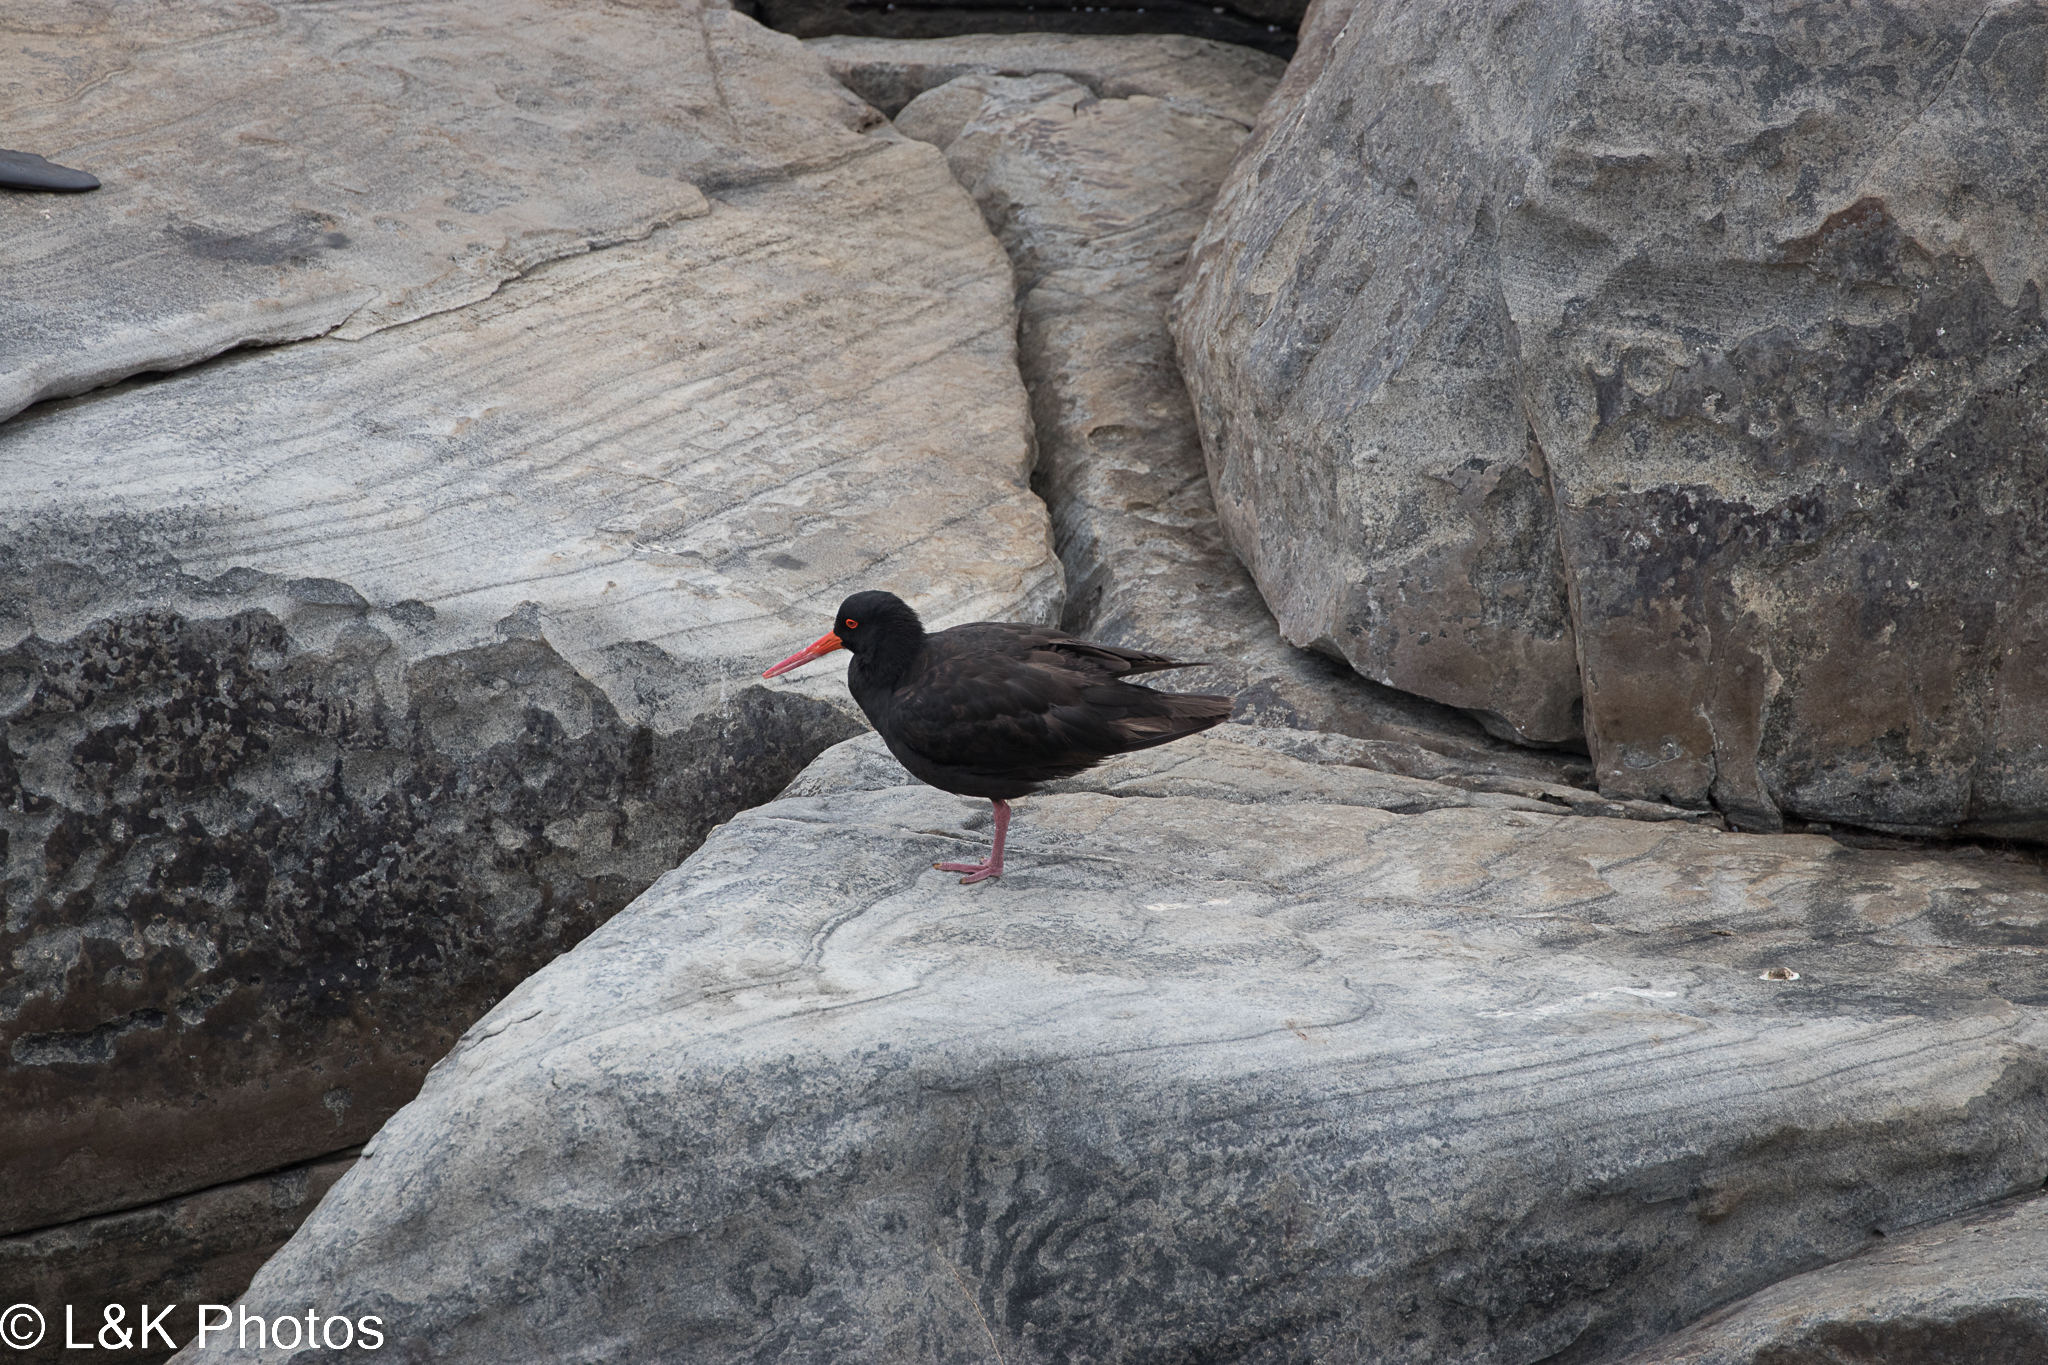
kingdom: Animalia
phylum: Chordata
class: Aves
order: Charadriiformes
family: Haematopodidae
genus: Haematopus
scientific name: Haematopus fuliginosus
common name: Sooty oystercatcher
